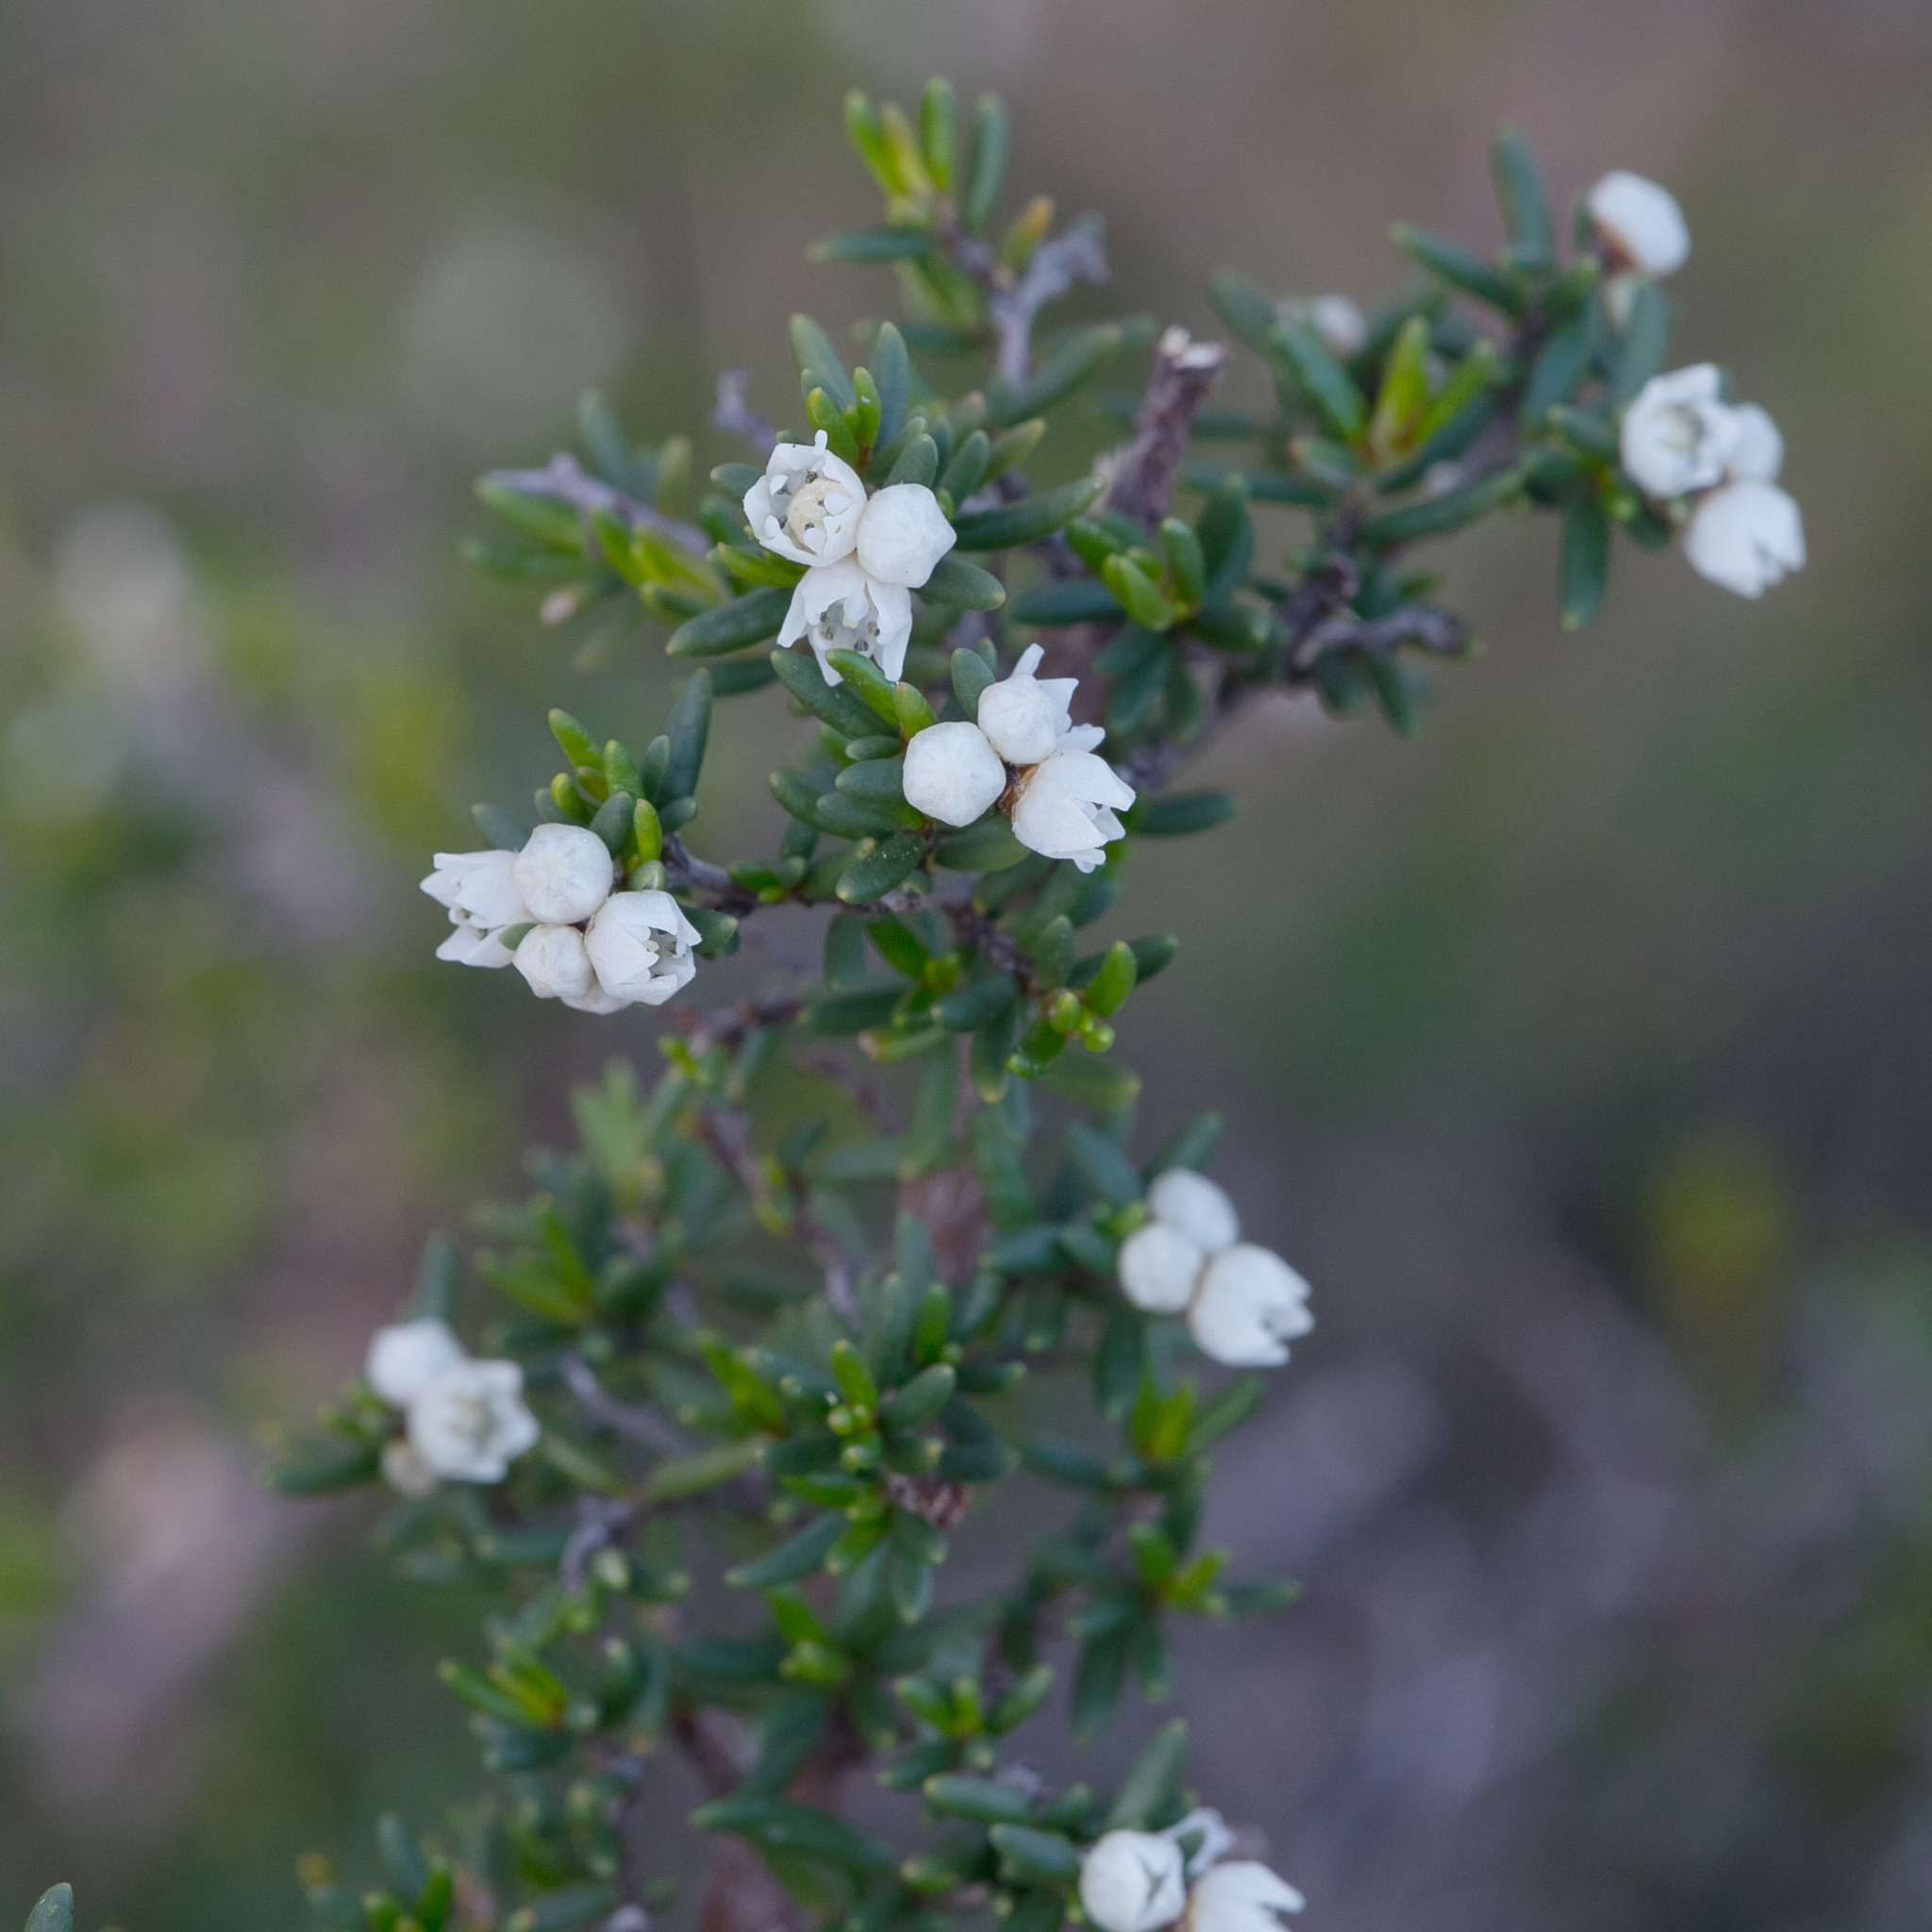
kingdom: Plantae
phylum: Tracheophyta
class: Magnoliopsida
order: Rosales
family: Rhamnaceae
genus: Cryptandra
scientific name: Cryptandra tomentosa
